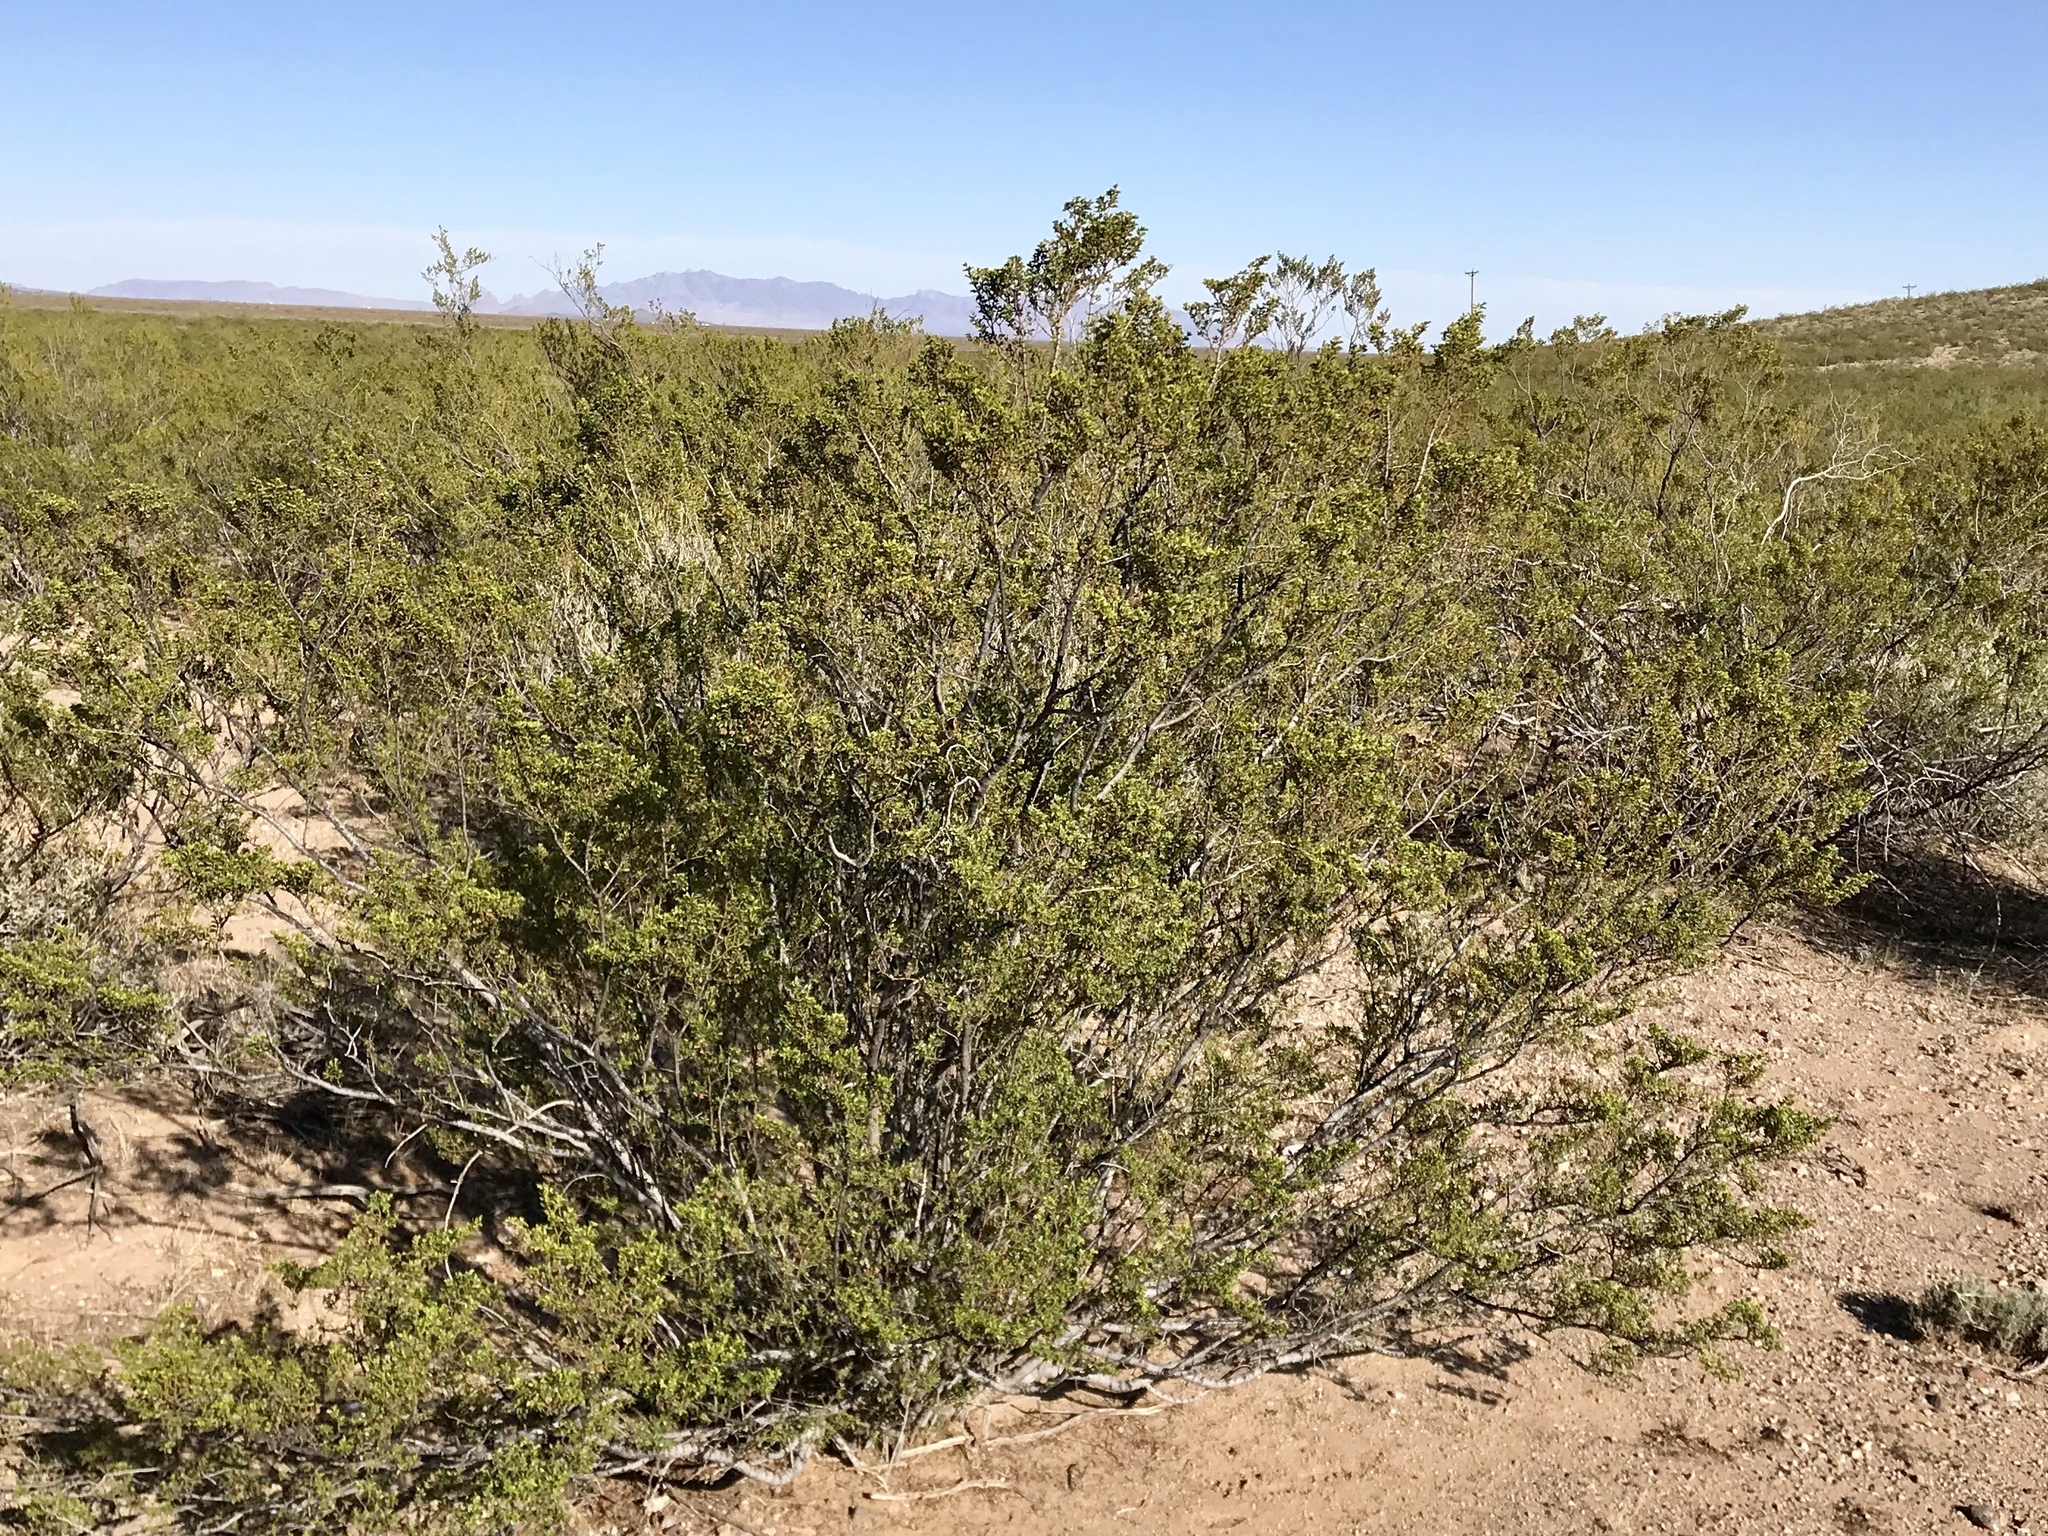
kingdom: Plantae
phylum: Tracheophyta
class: Magnoliopsida
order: Zygophyllales
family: Zygophyllaceae
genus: Larrea
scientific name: Larrea tridentata
